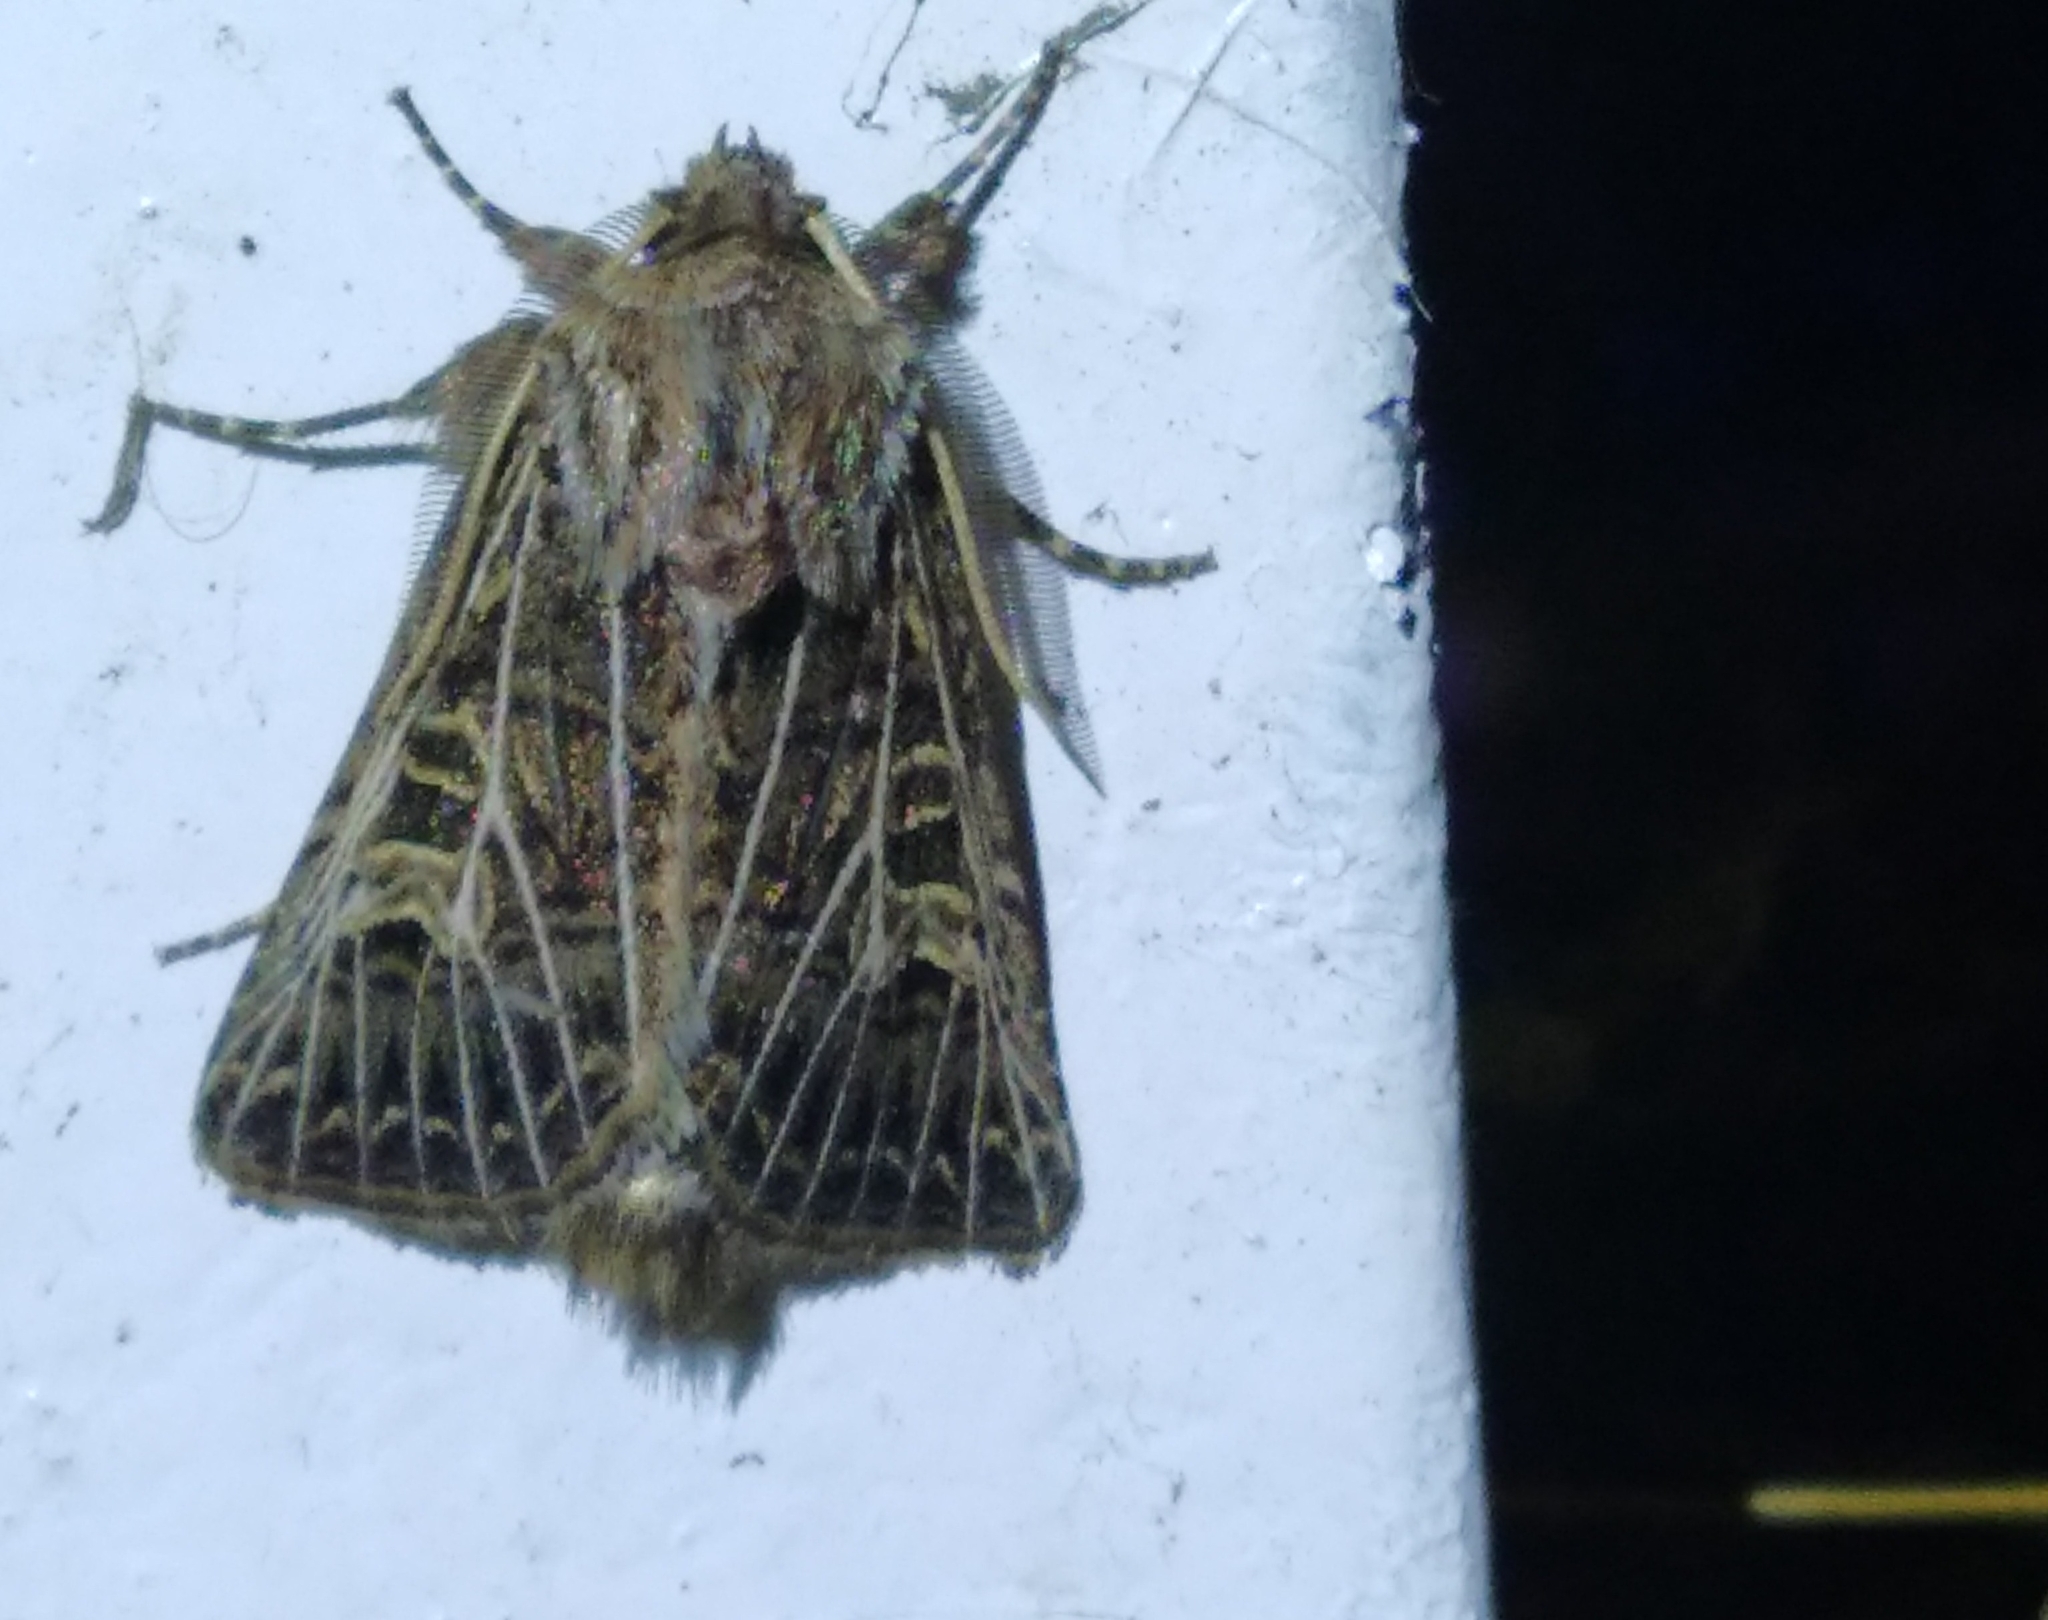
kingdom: Animalia
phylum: Arthropoda
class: Insecta
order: Lepidoptera
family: Noctuidae
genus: Tholera
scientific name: Tholera decimalis
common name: Feathered gothic
